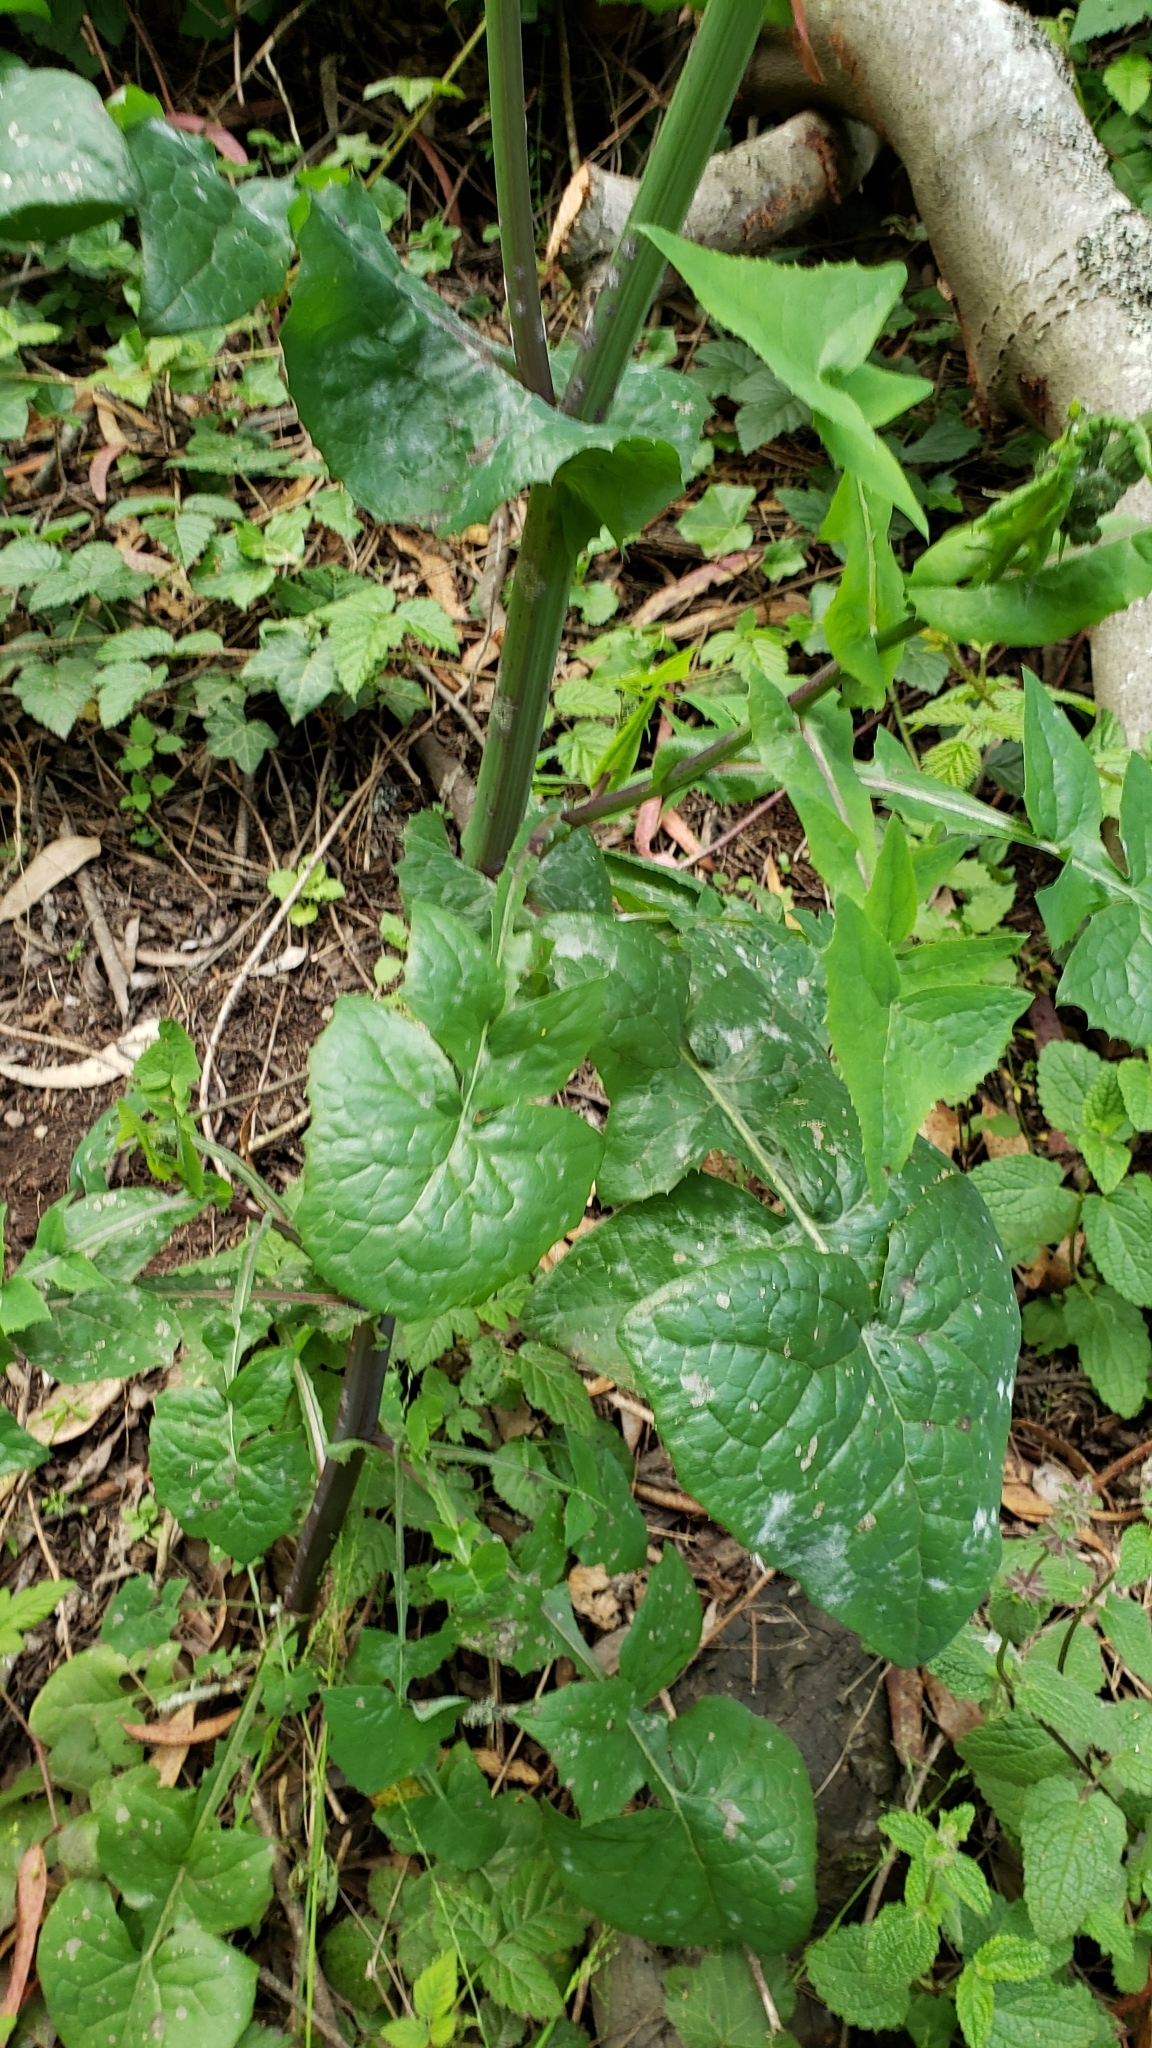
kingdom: Plantae
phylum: Tracheophyta
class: Magnoliopsida
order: Asterales
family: Asteraceae
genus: Sonchus
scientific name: Sonchus oleraceus
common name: Common sowthistle
